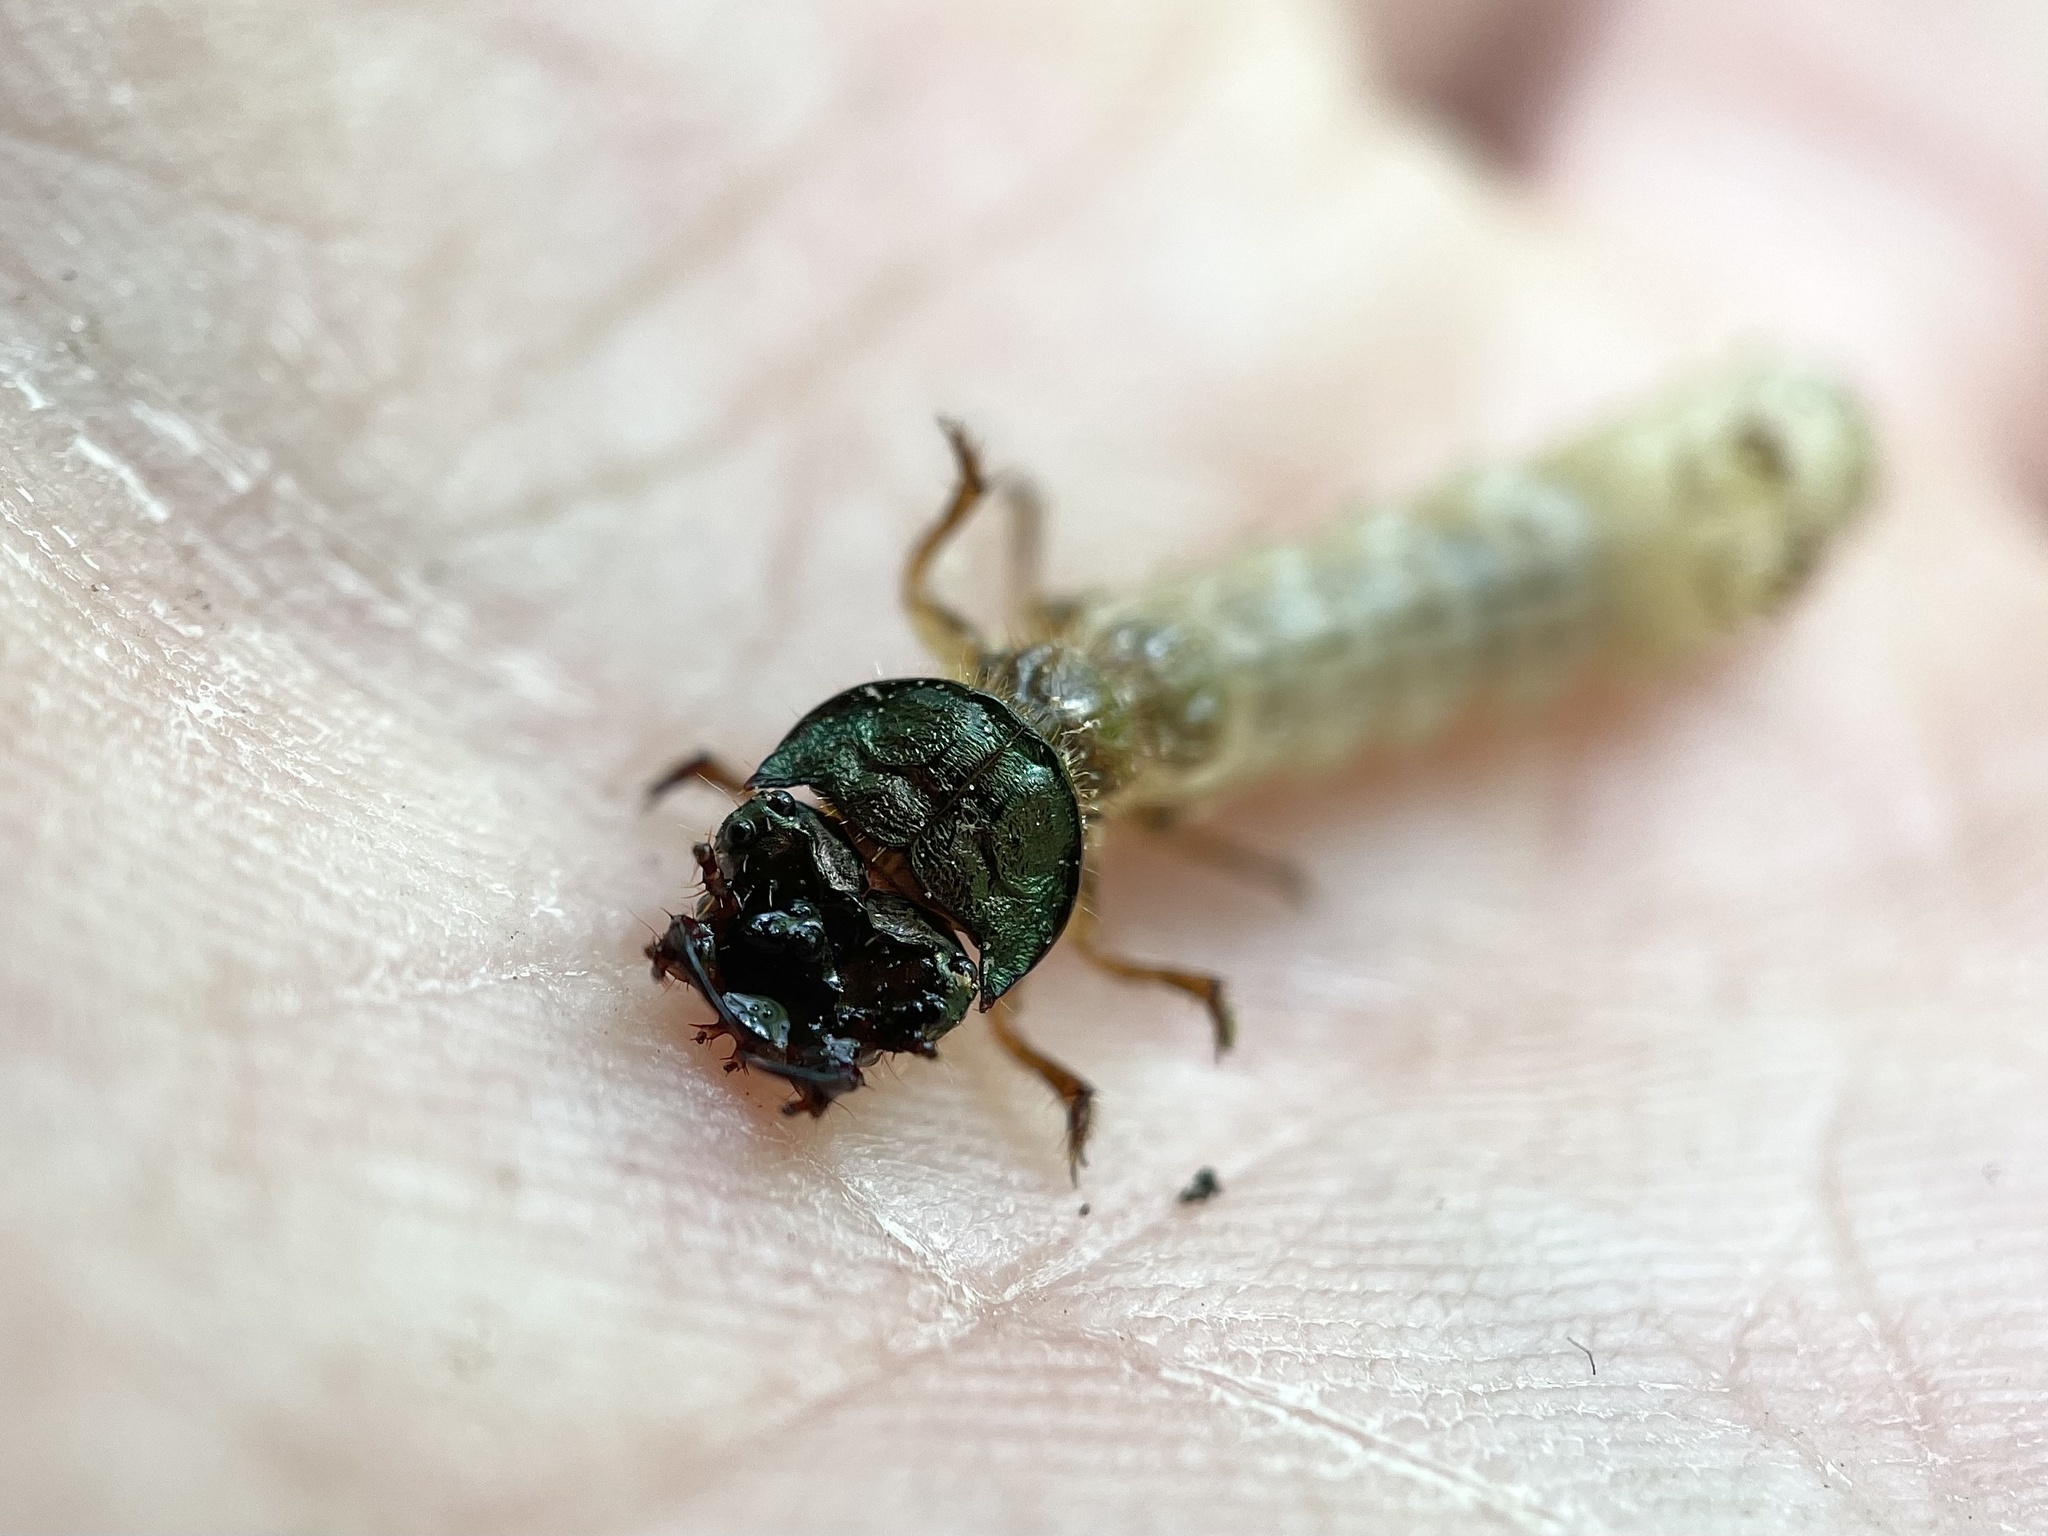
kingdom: Animalia
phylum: Arthropoda
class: Insecta
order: Coleoptera
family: Carabidae
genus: Cylindera
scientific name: Cylindera unipunctata
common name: One-spotted tiger beetle
